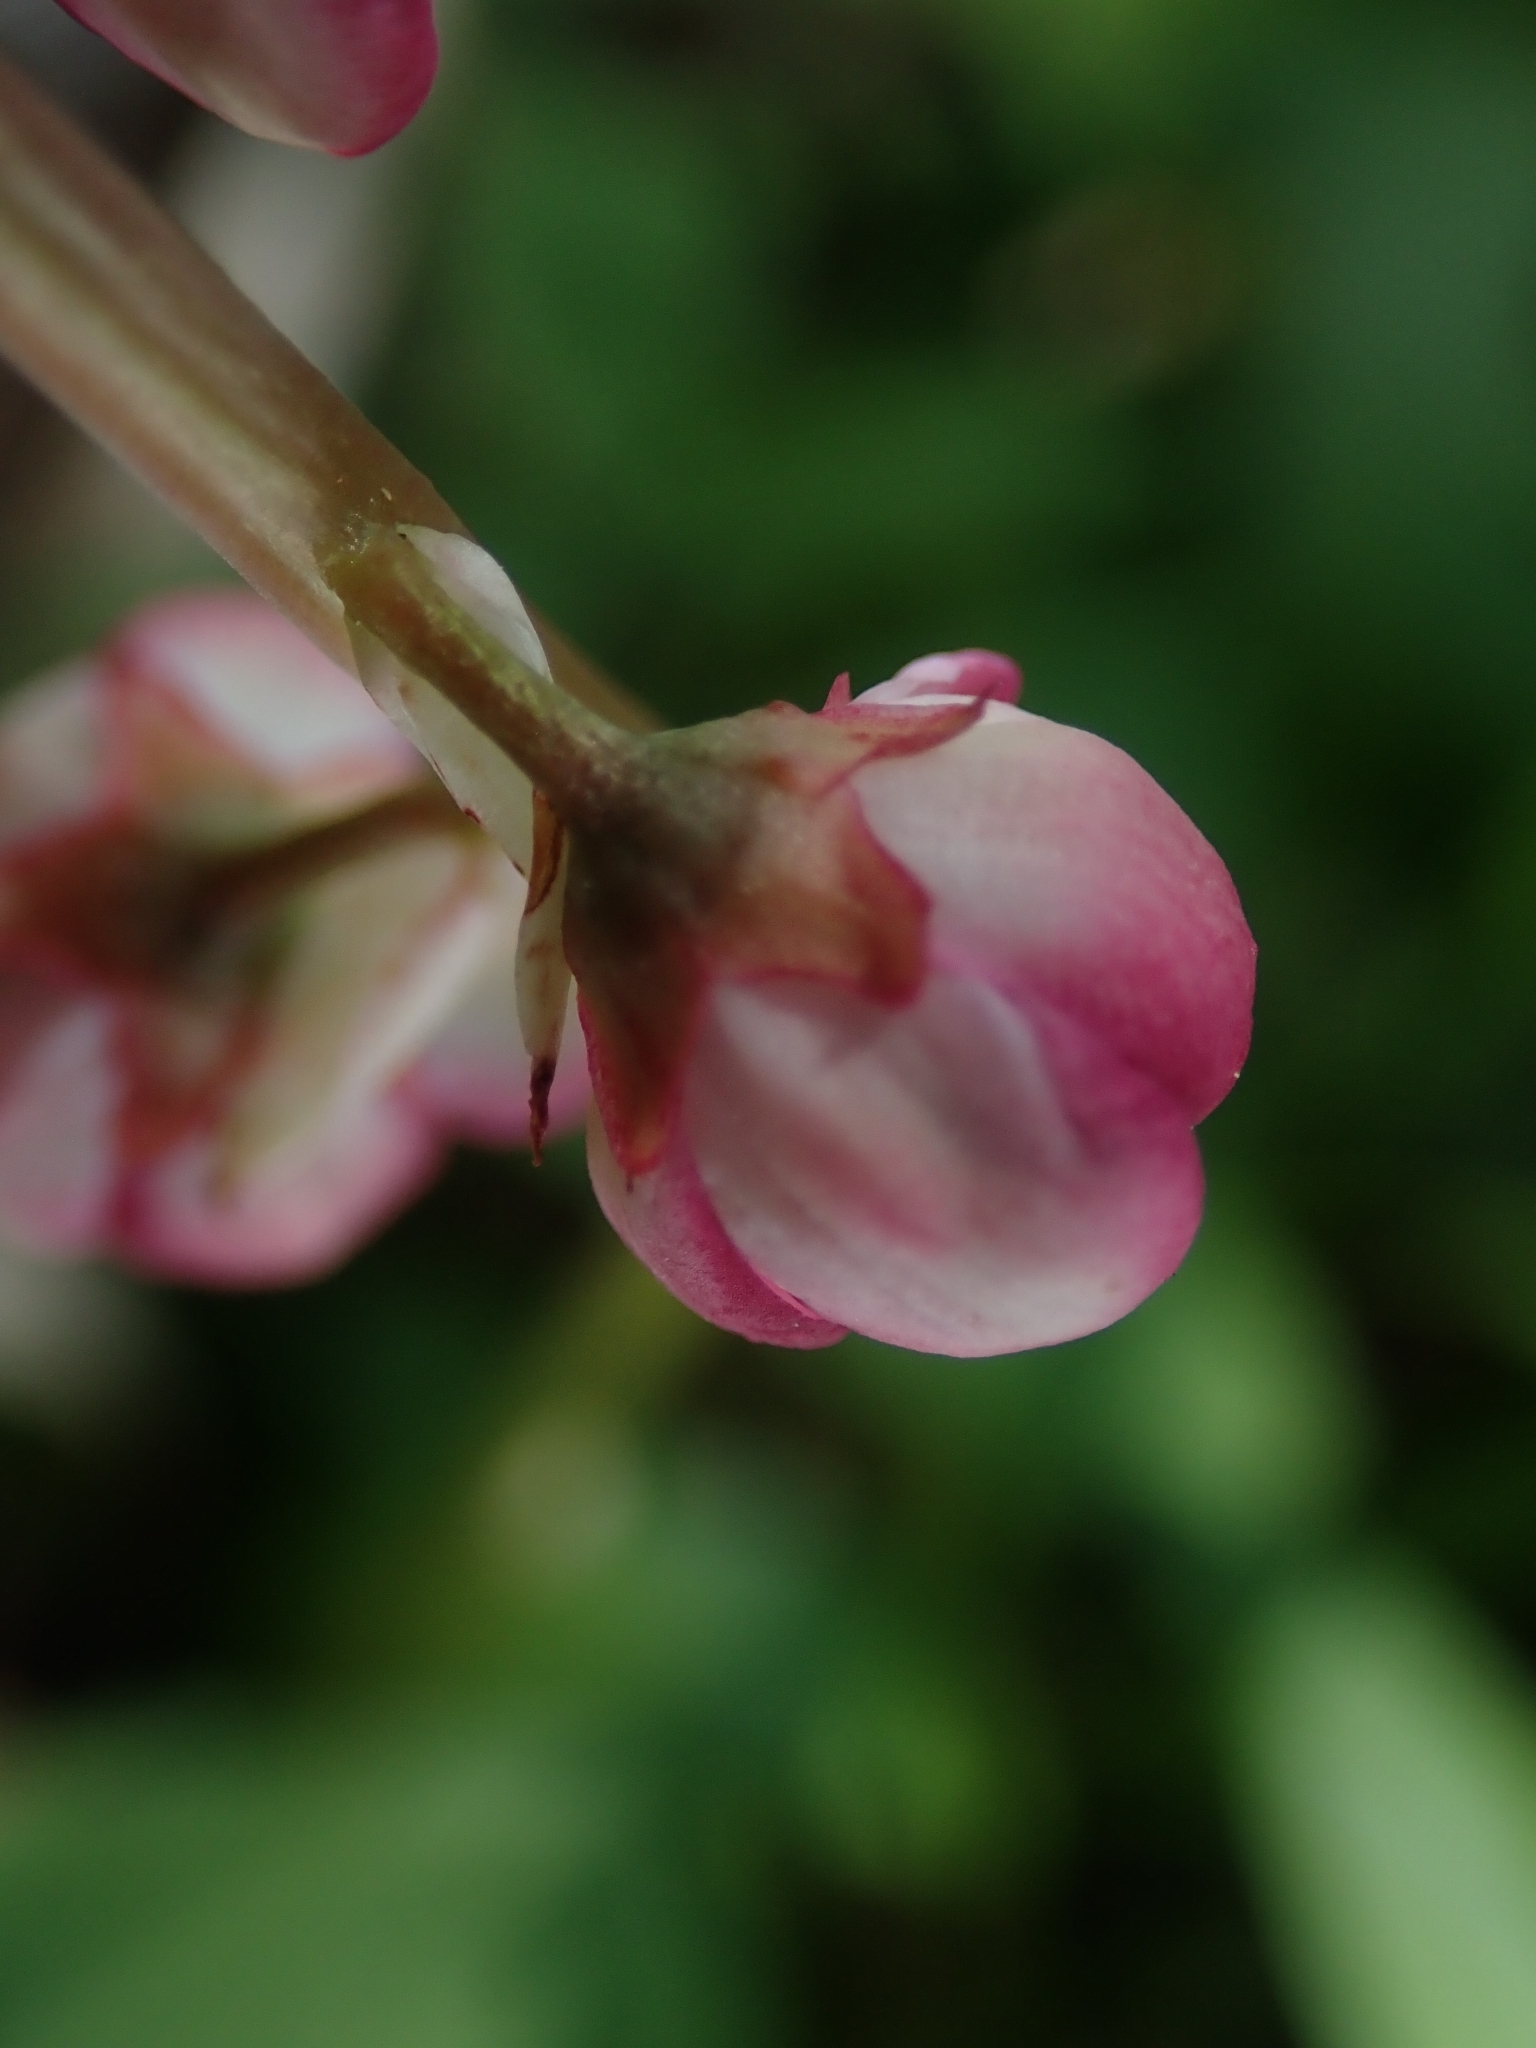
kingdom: Plantae
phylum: Tracheophyta
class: Magnoliopsida
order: Ericales
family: Ericaceae
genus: Pyrola
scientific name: Pyrola asarifolia
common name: Bog wintergreen
